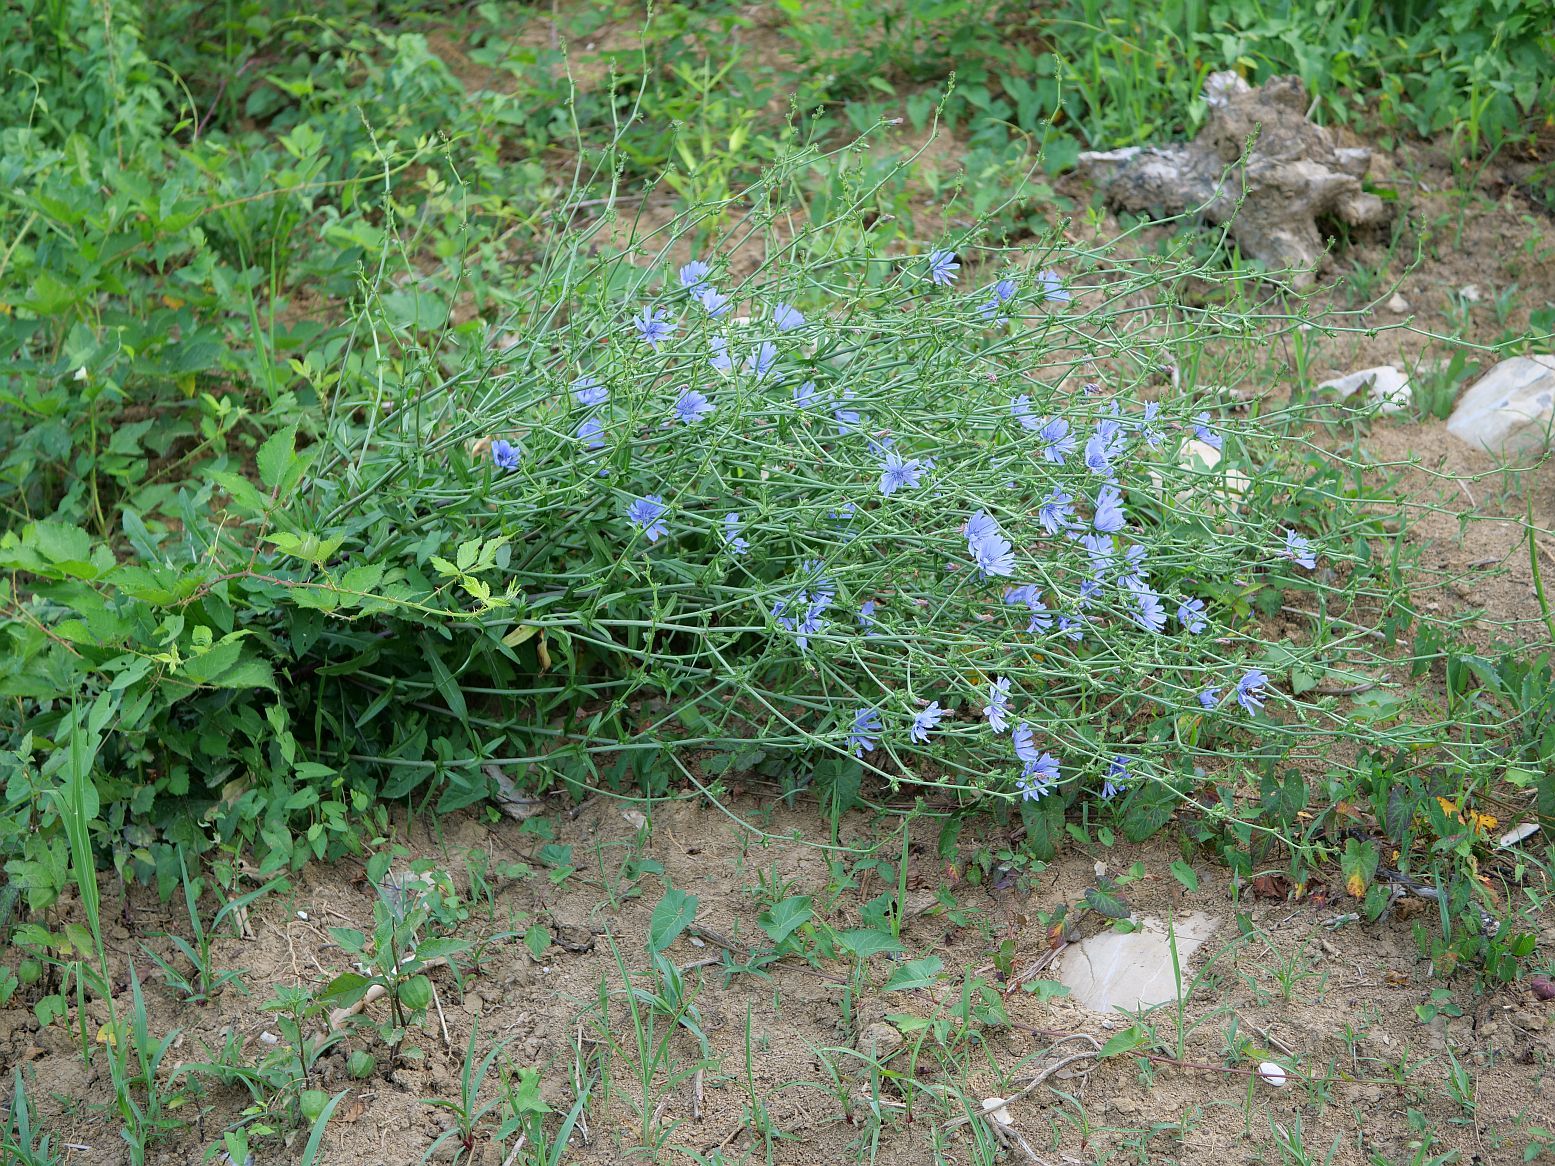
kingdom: Plantae
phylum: Tracheophyta
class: Magnoliopsida
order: Asterales
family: Asteraceae
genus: Cichorium
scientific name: Cichorium intybus
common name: Chicory
